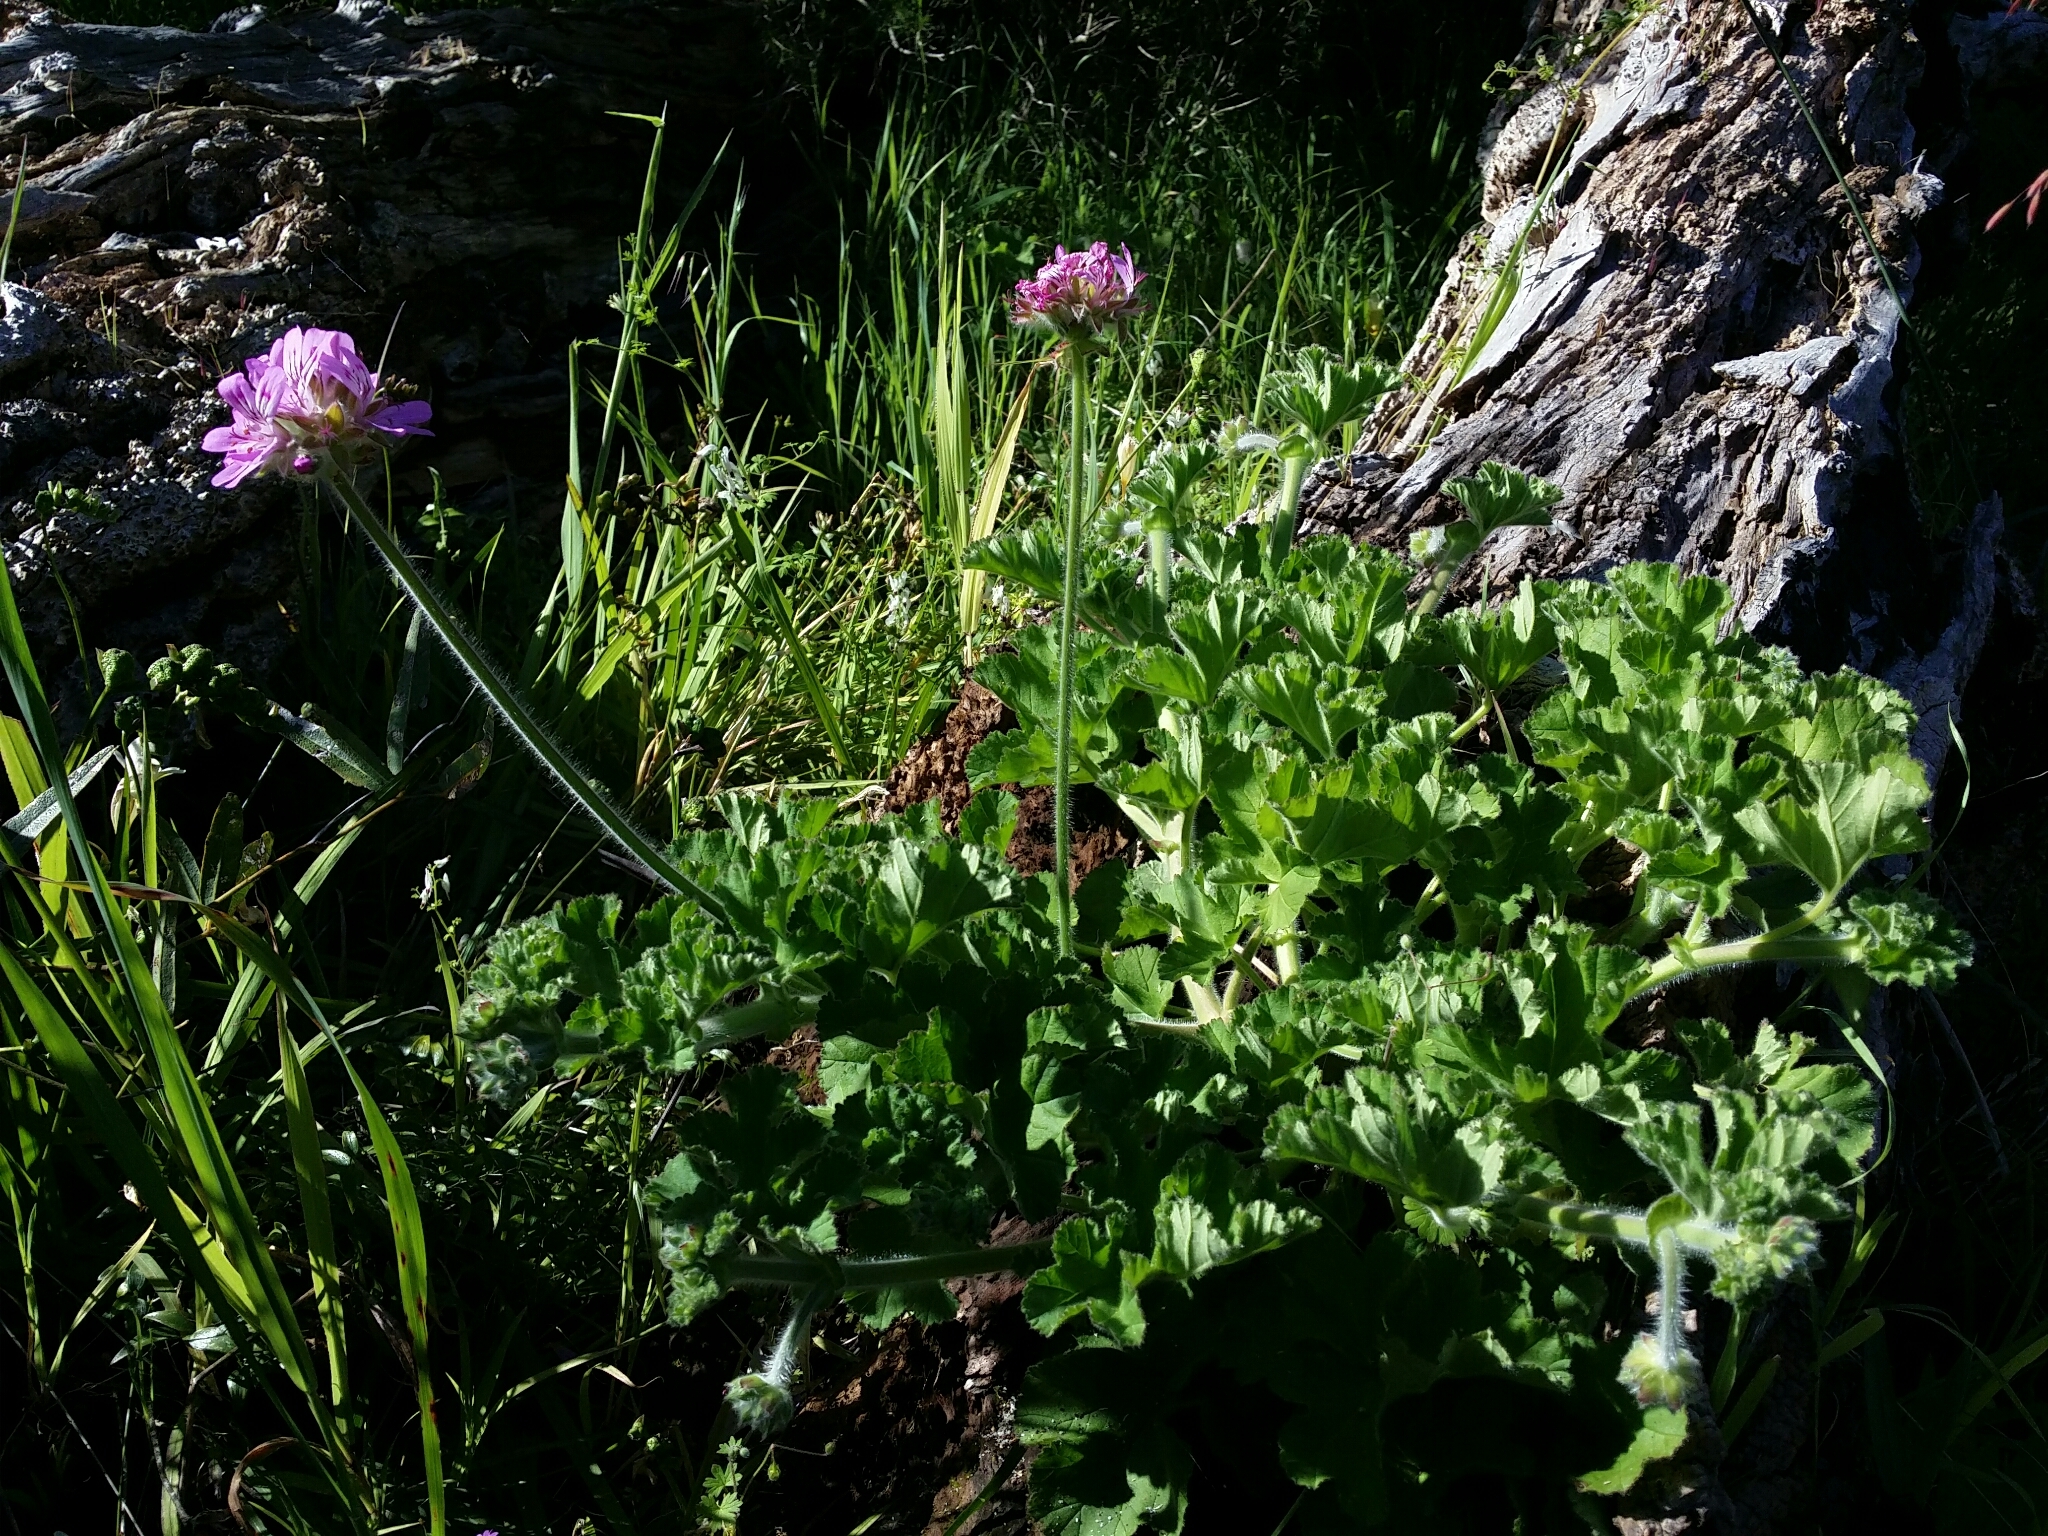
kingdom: Plantae
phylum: Tracheophyta
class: Magnoliopsida
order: Geraniales
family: Geraniaceae
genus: Pelargonium
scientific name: Pelargonium capitatum
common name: Rose scented geranium
